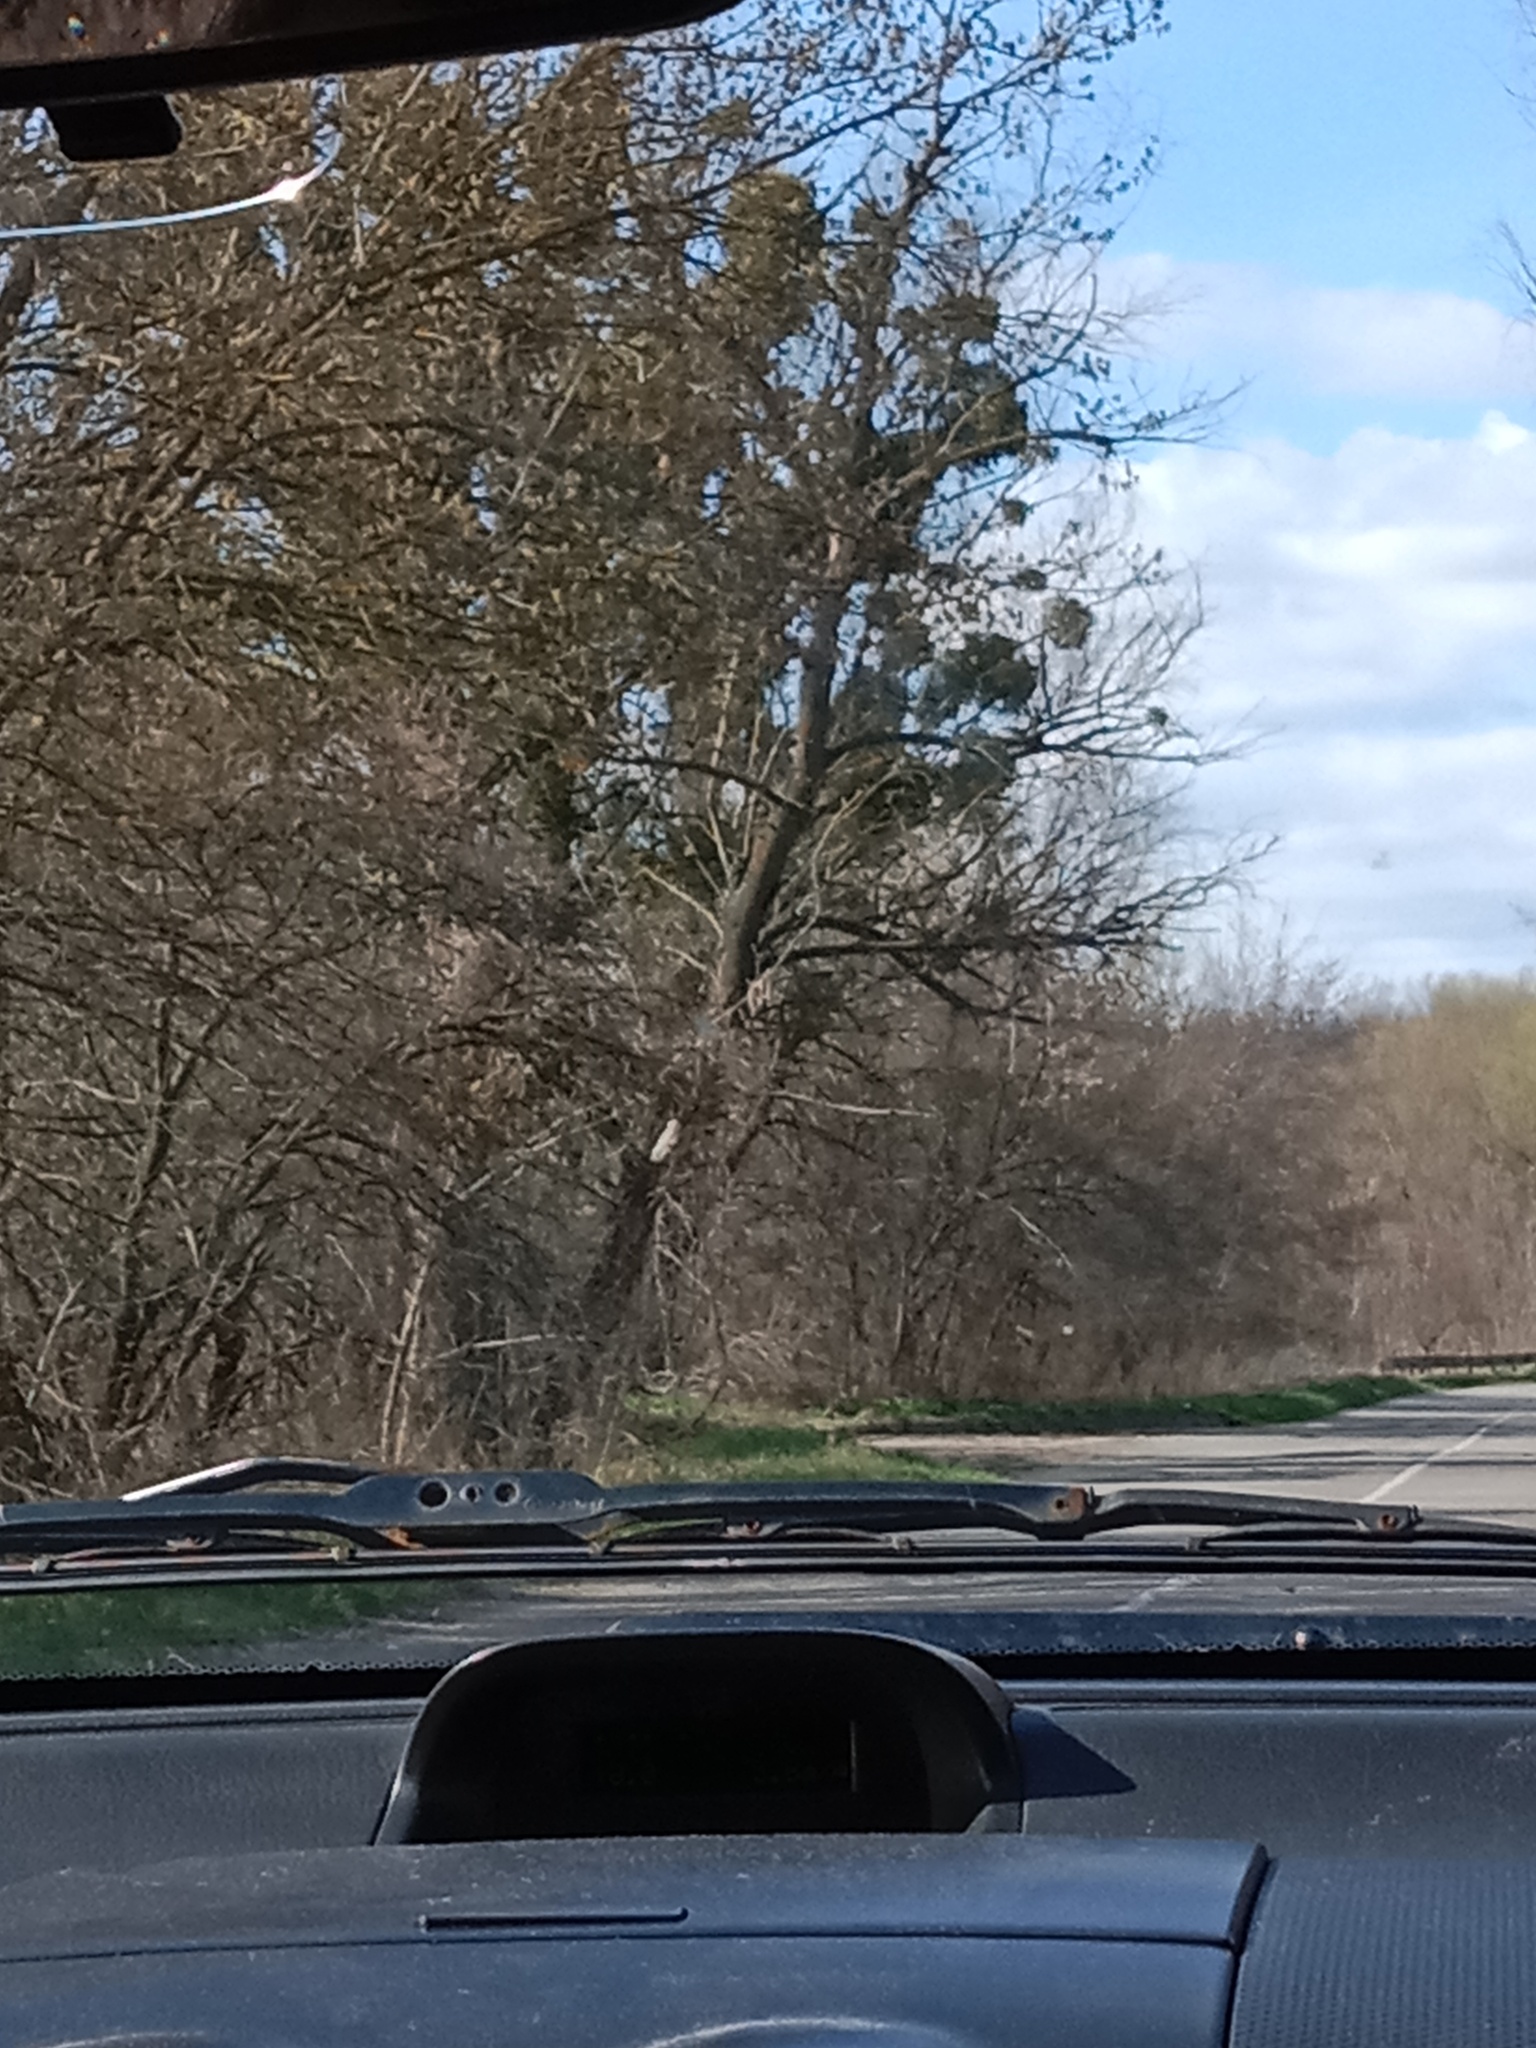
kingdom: Plantae
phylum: Tracheophyta
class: Magnoliopsida
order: Santalales
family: Viscaceae
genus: Viscum
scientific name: Viscum album
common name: Mistletoe
